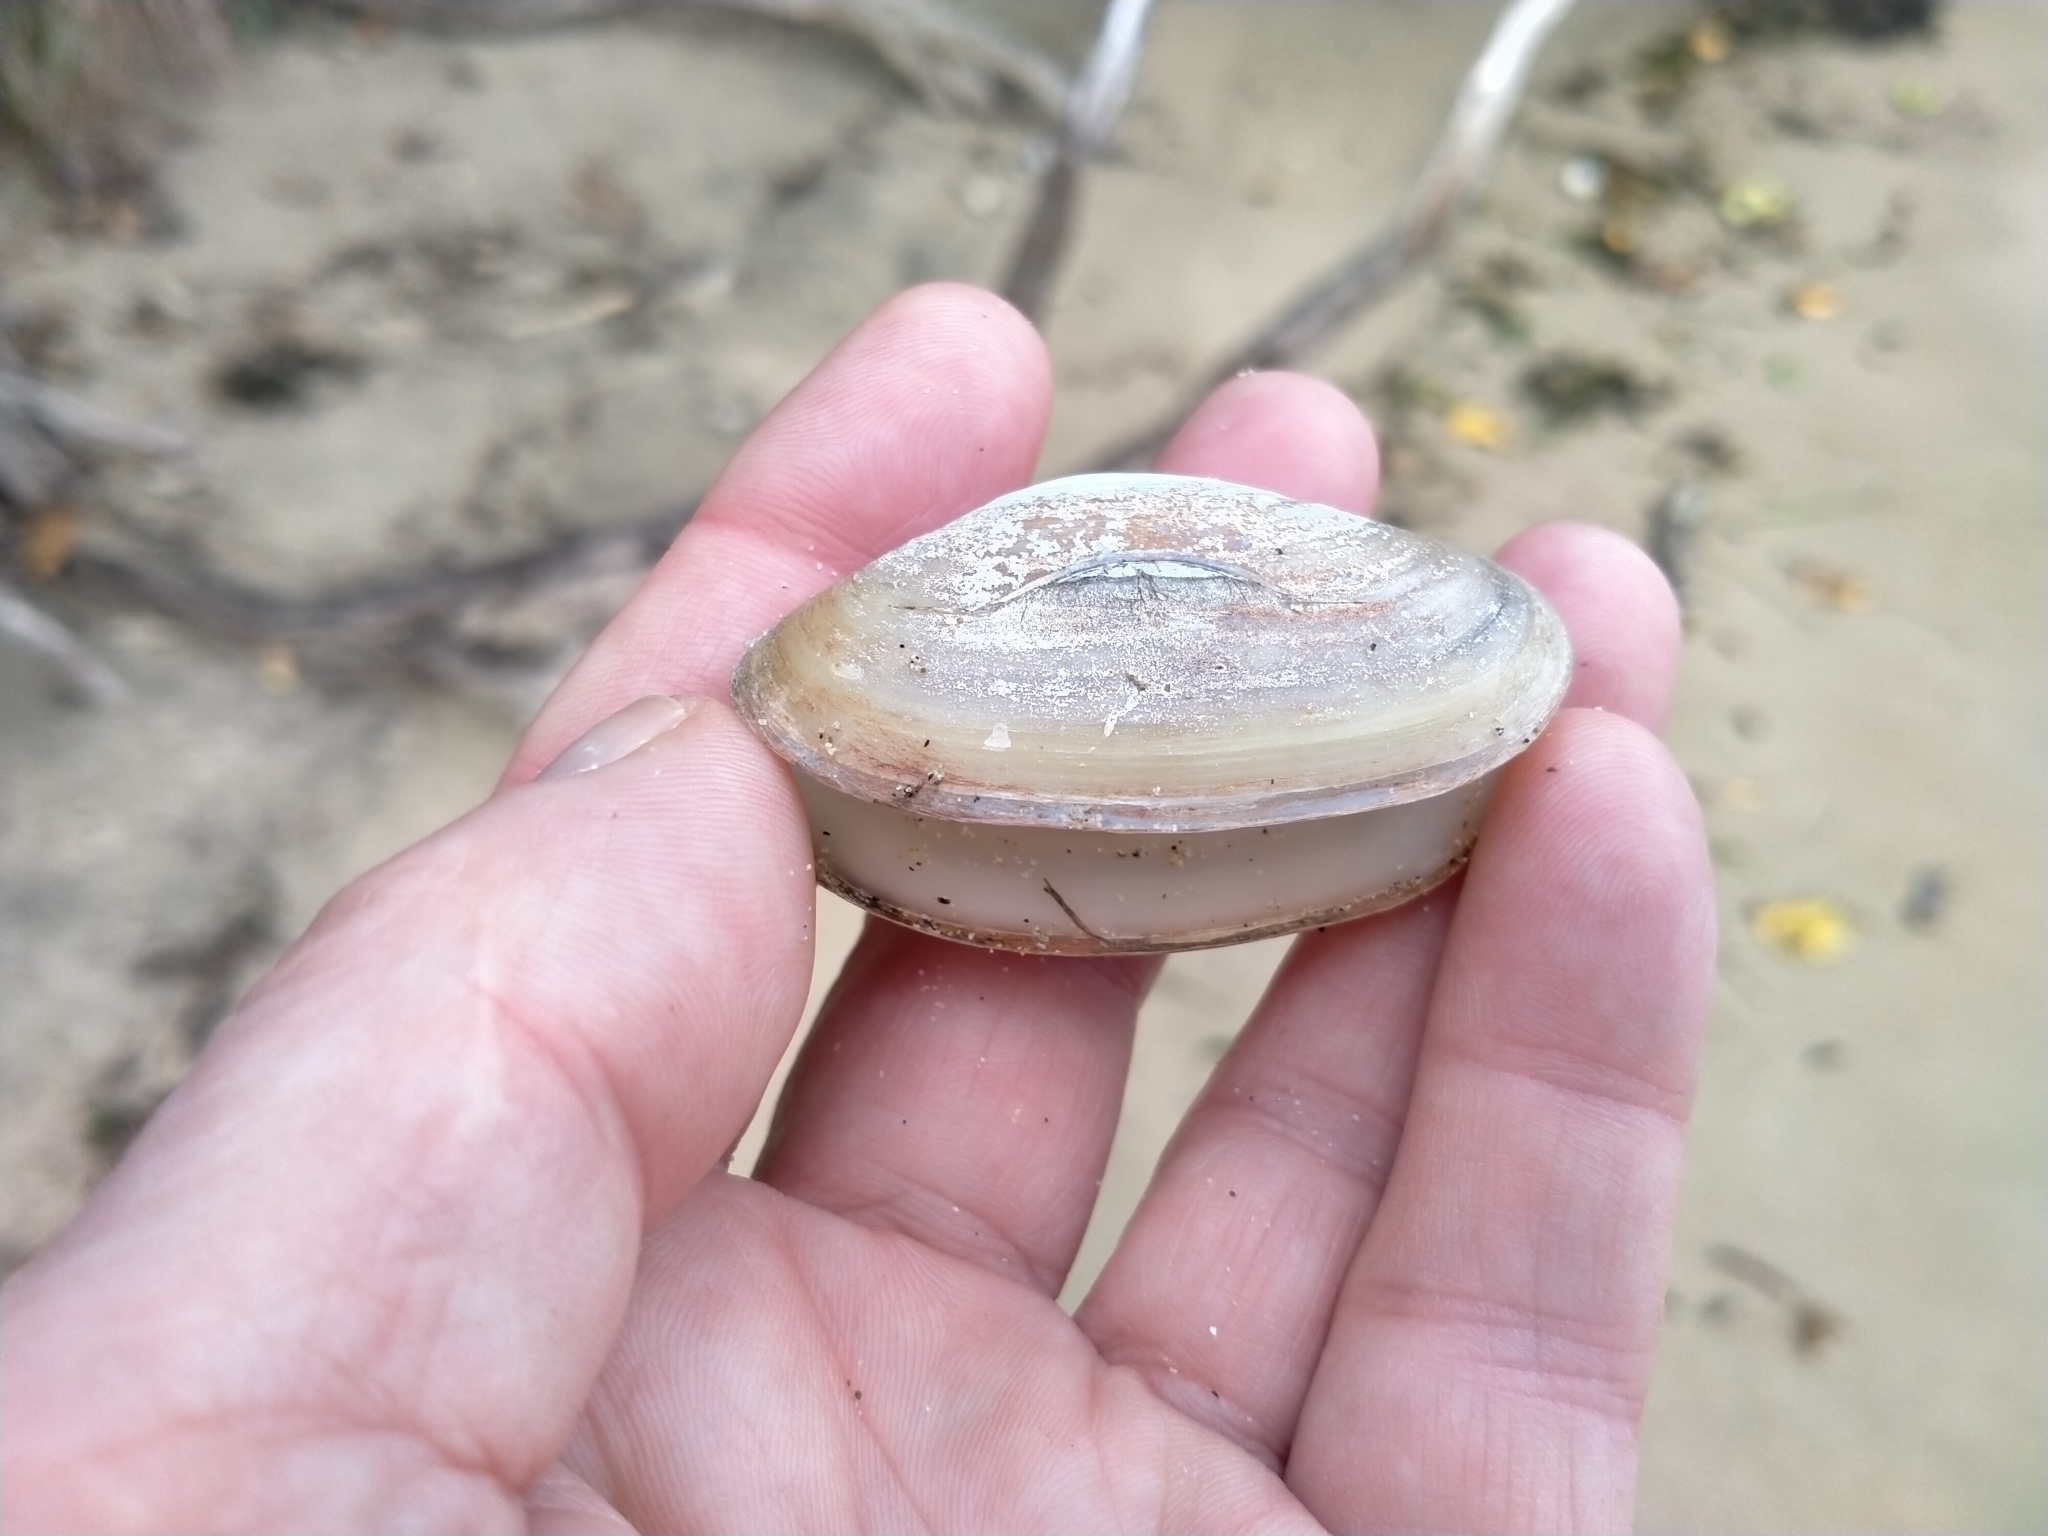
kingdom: Animalia
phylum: Mollusca
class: Bivalvia
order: Venerida
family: Mesodesmatidae
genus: Paphies
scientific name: Paphies australis
